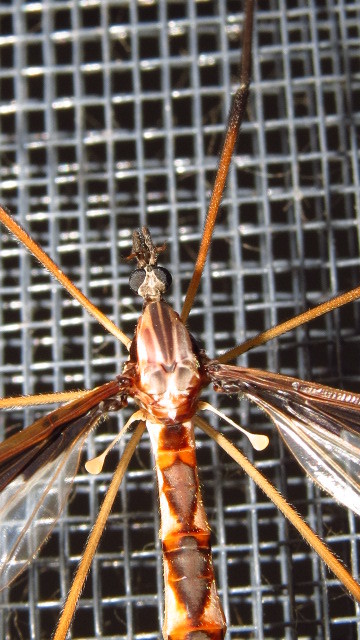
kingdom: Animalia
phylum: Arthropoda
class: Insecta
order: Diptera
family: Pediciidae
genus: Pedicia
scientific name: Pedicia albivitta
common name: Giant eastern crane fly
